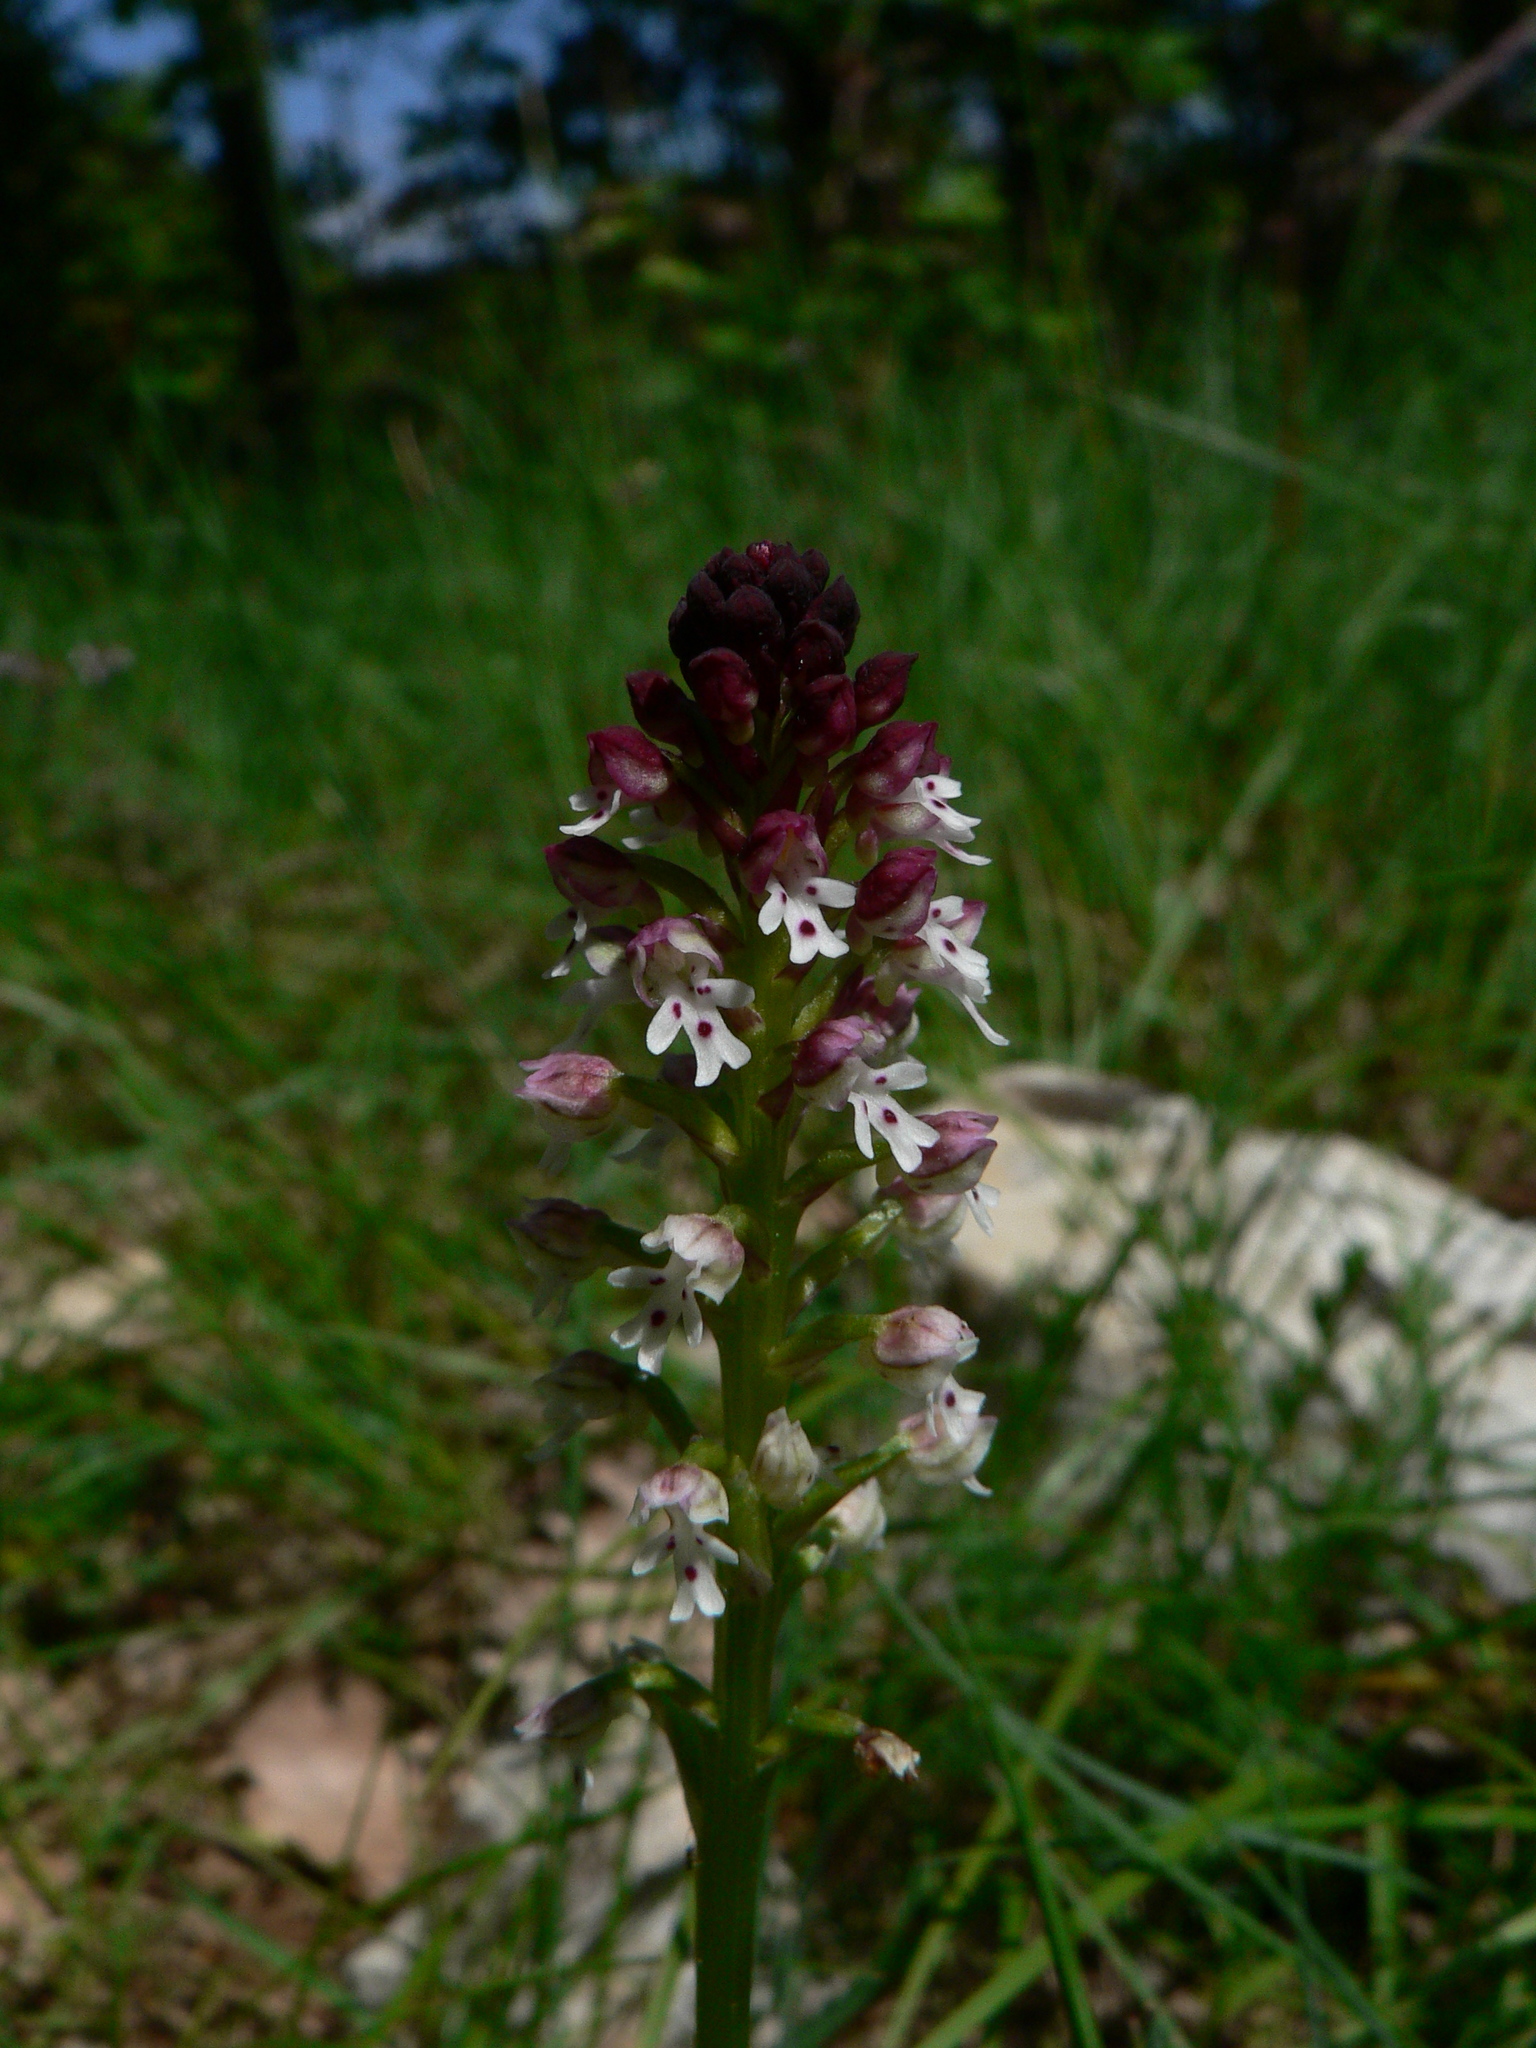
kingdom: Plantae
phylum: Tracheophyta
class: Liliopsida
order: Asparagales
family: Orchidaceae
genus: Neotinea
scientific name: Neotinea ustulata
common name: Burnt orchid
